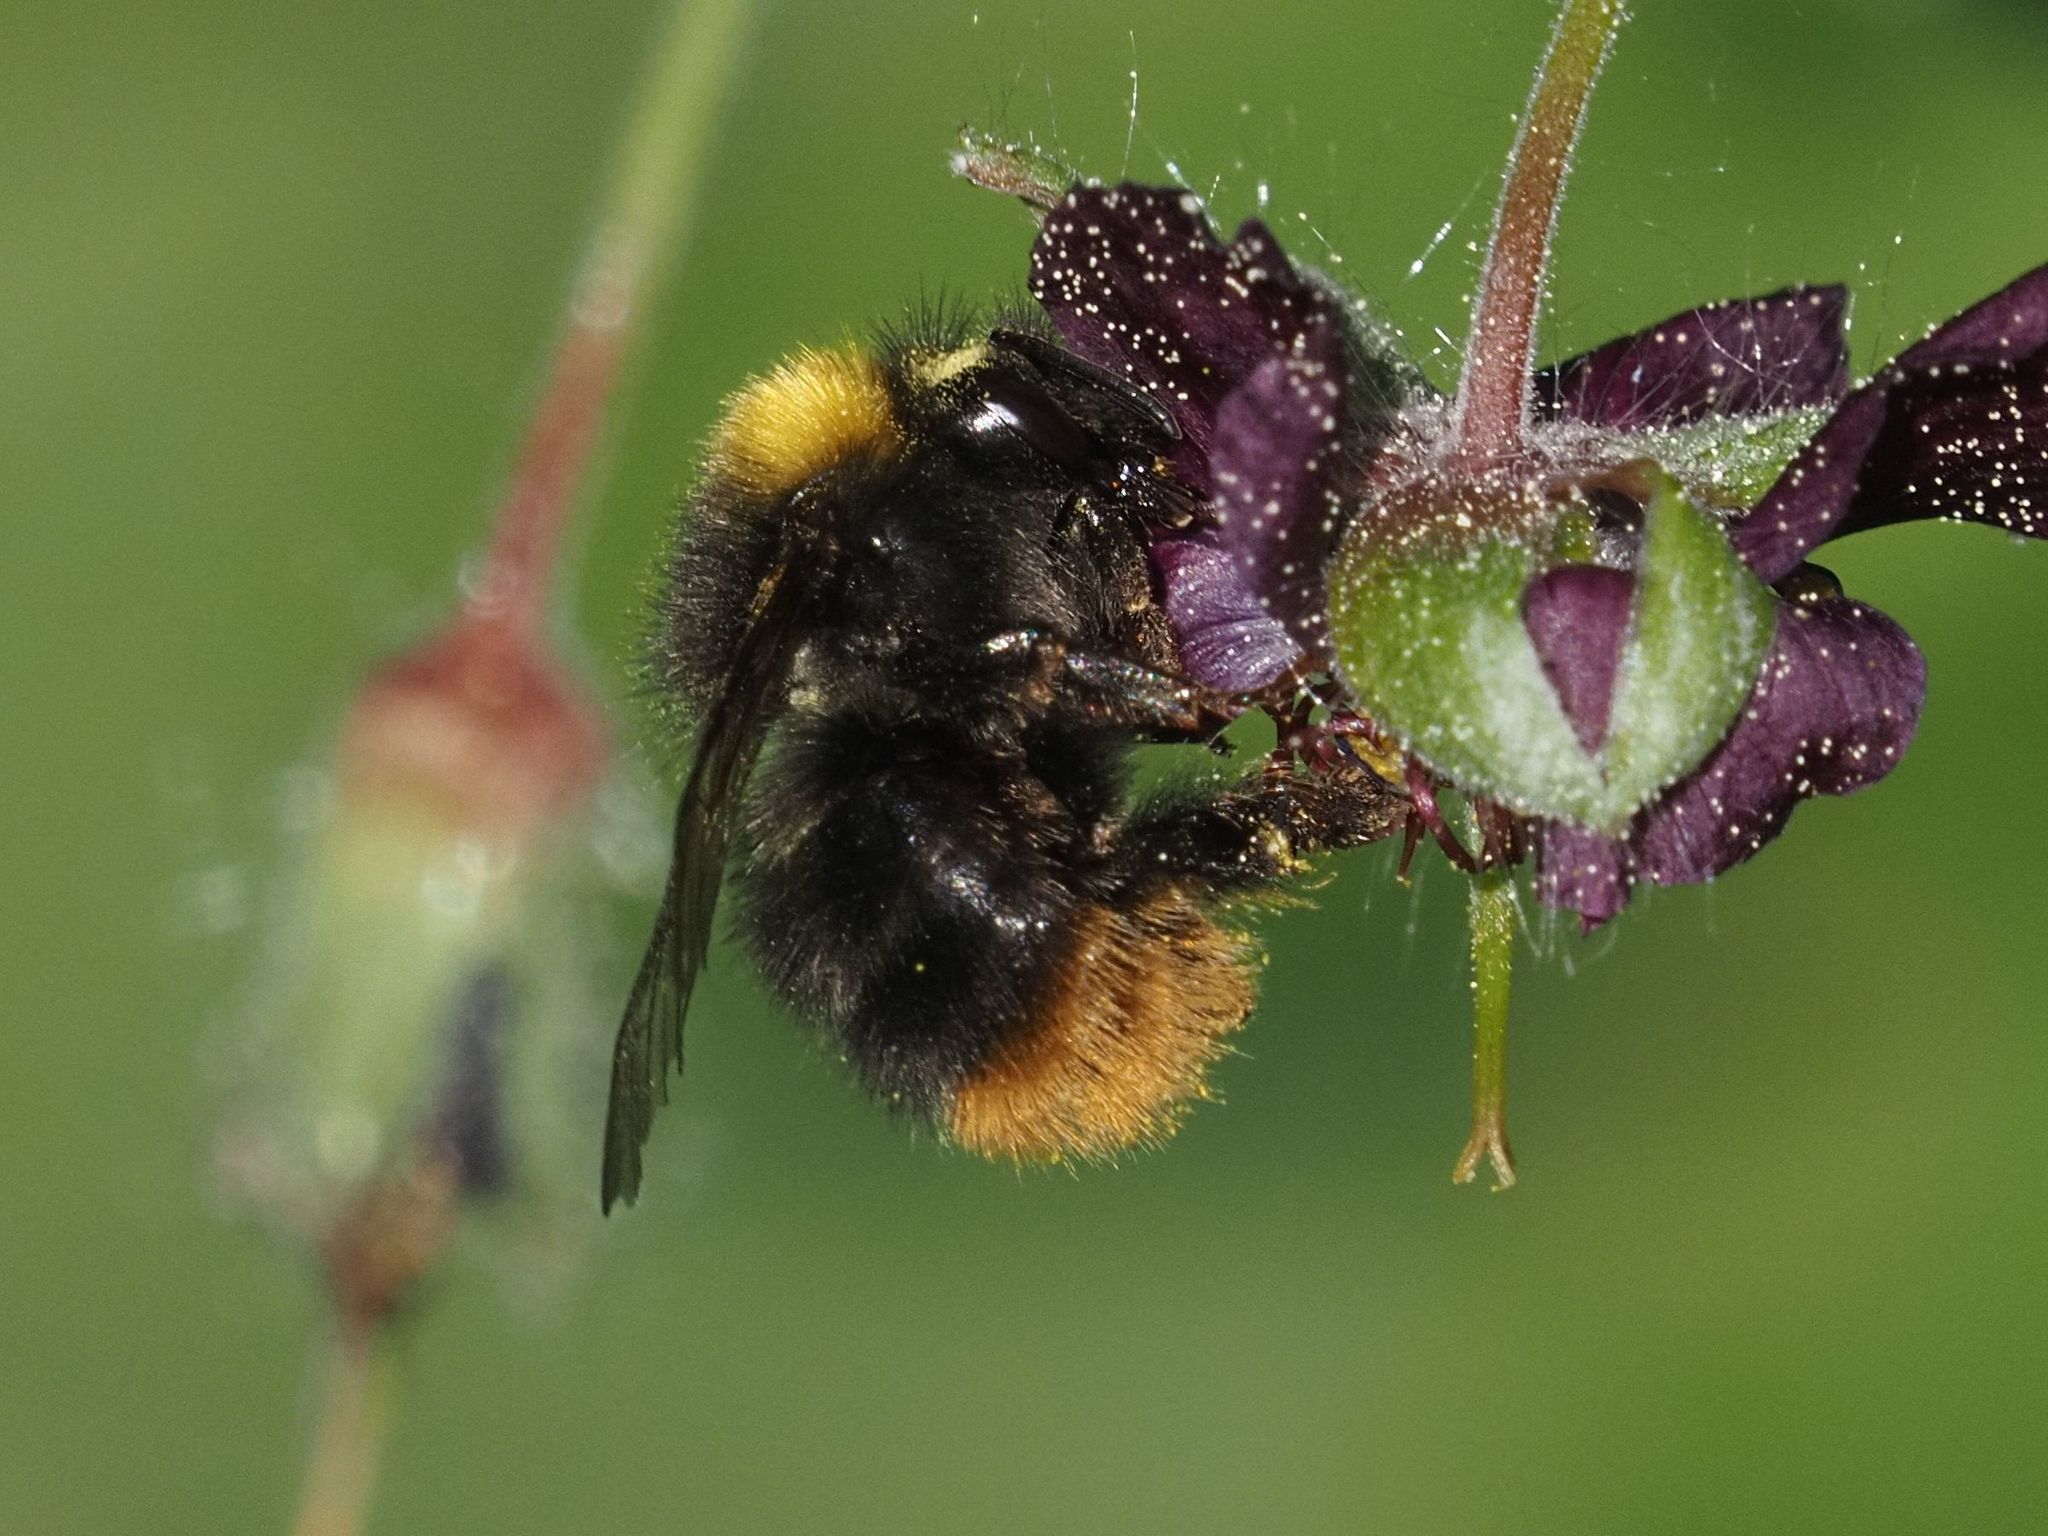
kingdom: Animalia
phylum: Arthropoda
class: Insecta
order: Hymenoptera
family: Apidae
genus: Bombus
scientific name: Bombus pratorum
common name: Early humble-bee
